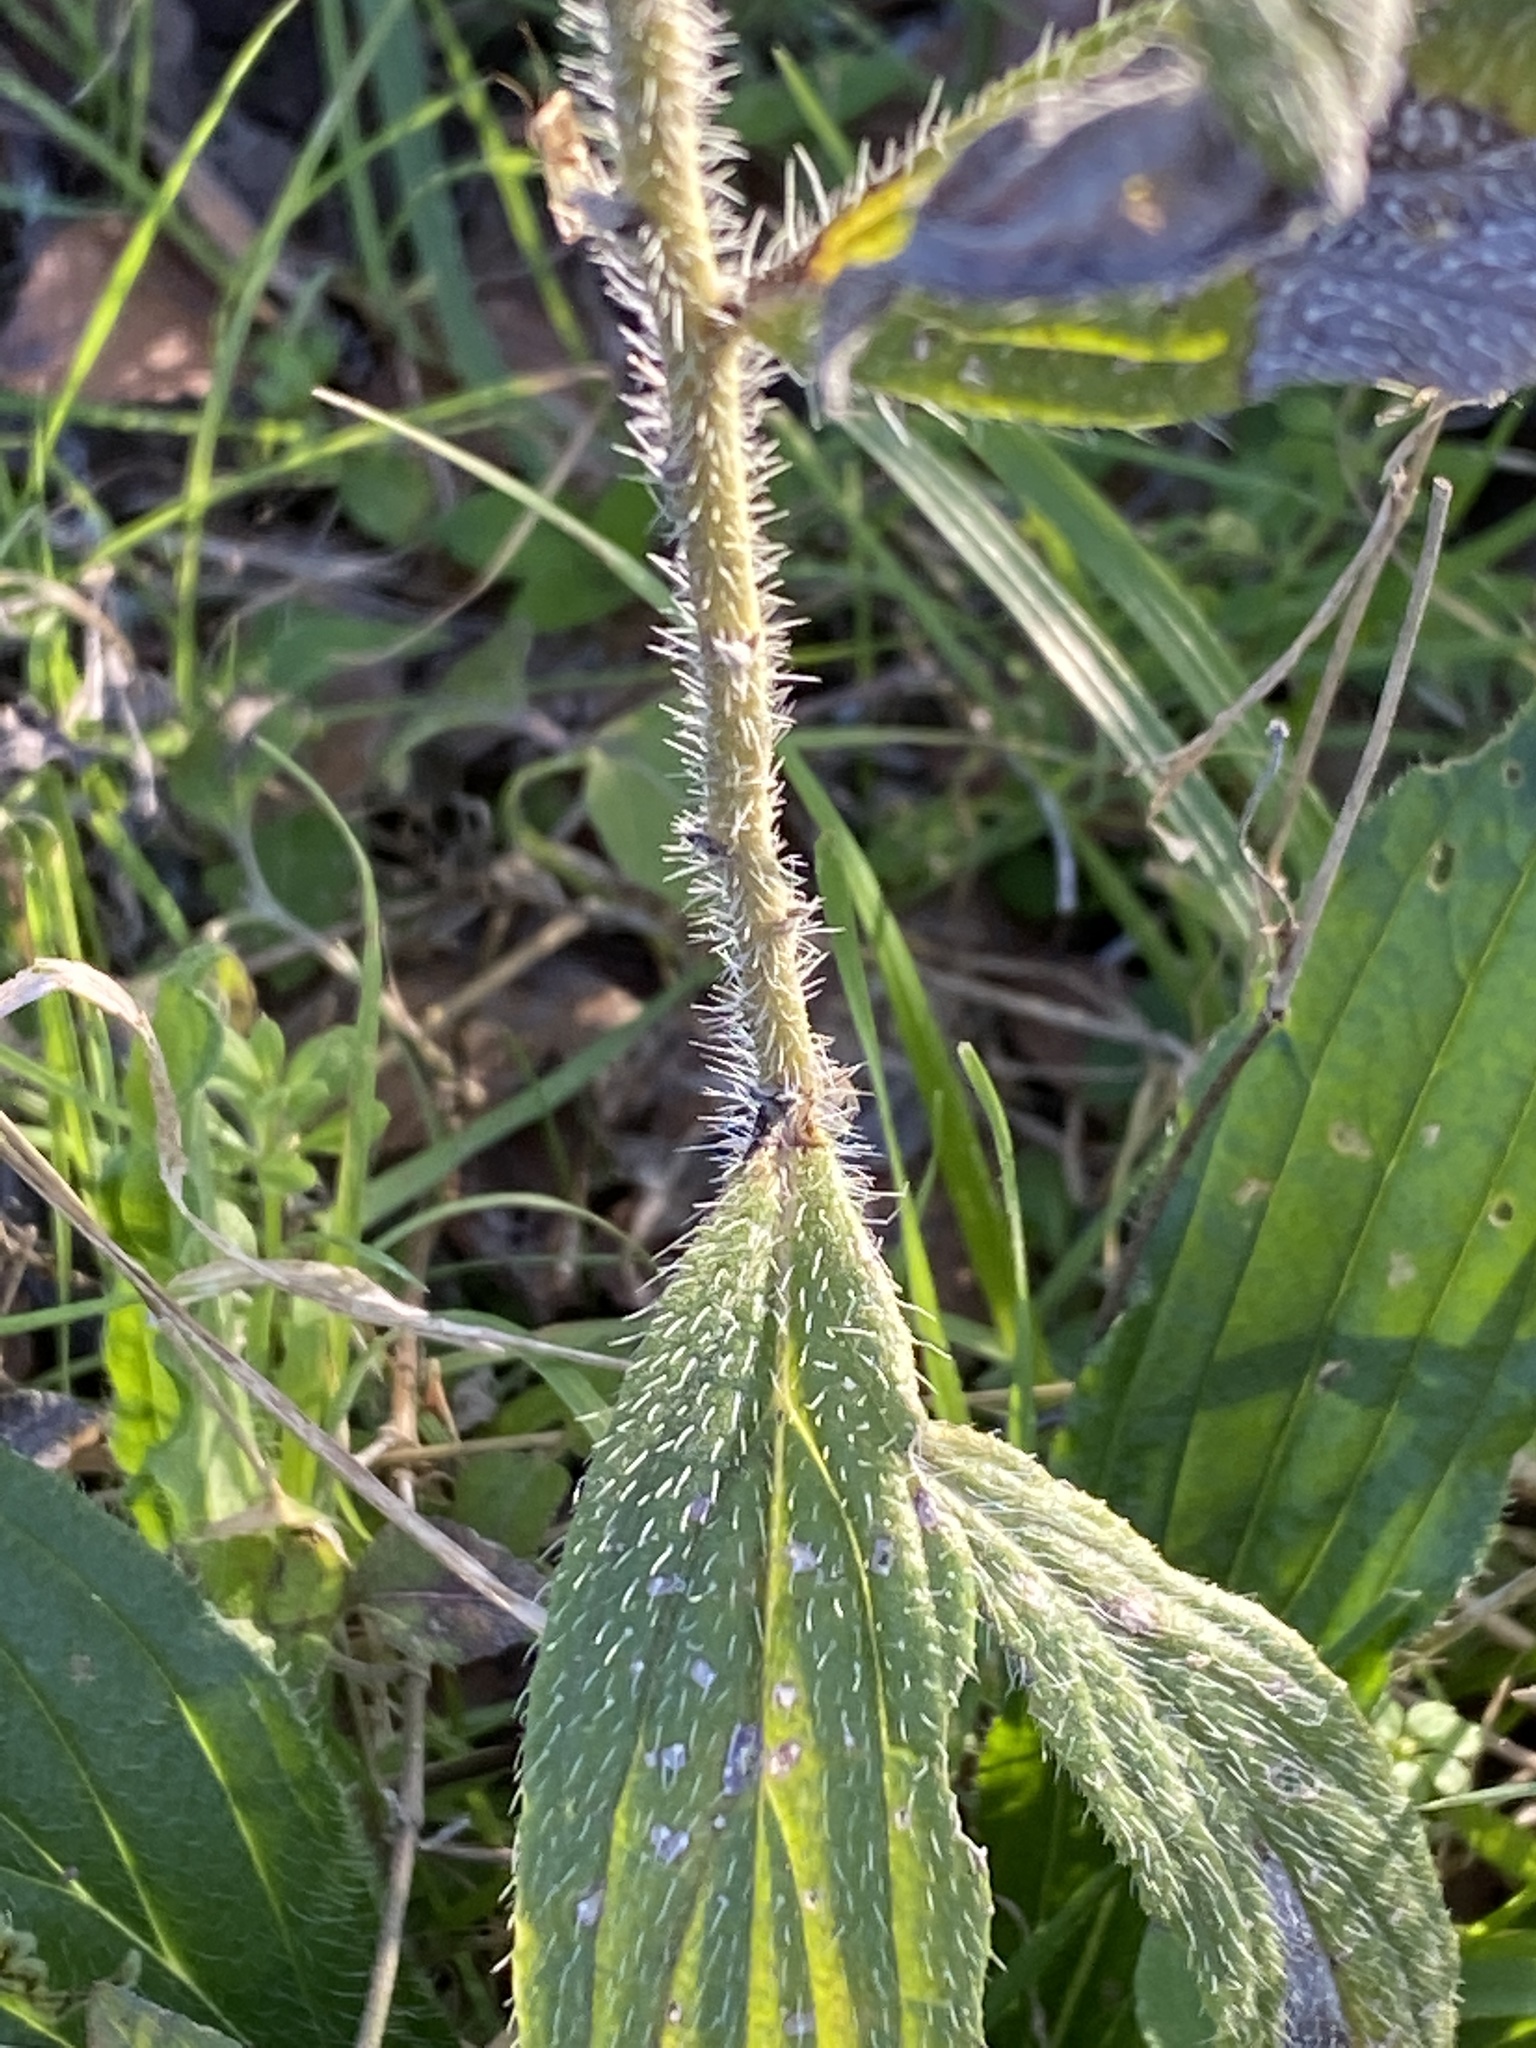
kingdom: Plantae
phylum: Tracheophyta
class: Magnoliopsida
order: Boraginales
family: Boraginaceae
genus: Lithospermum
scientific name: Lithospermum caroliniense
